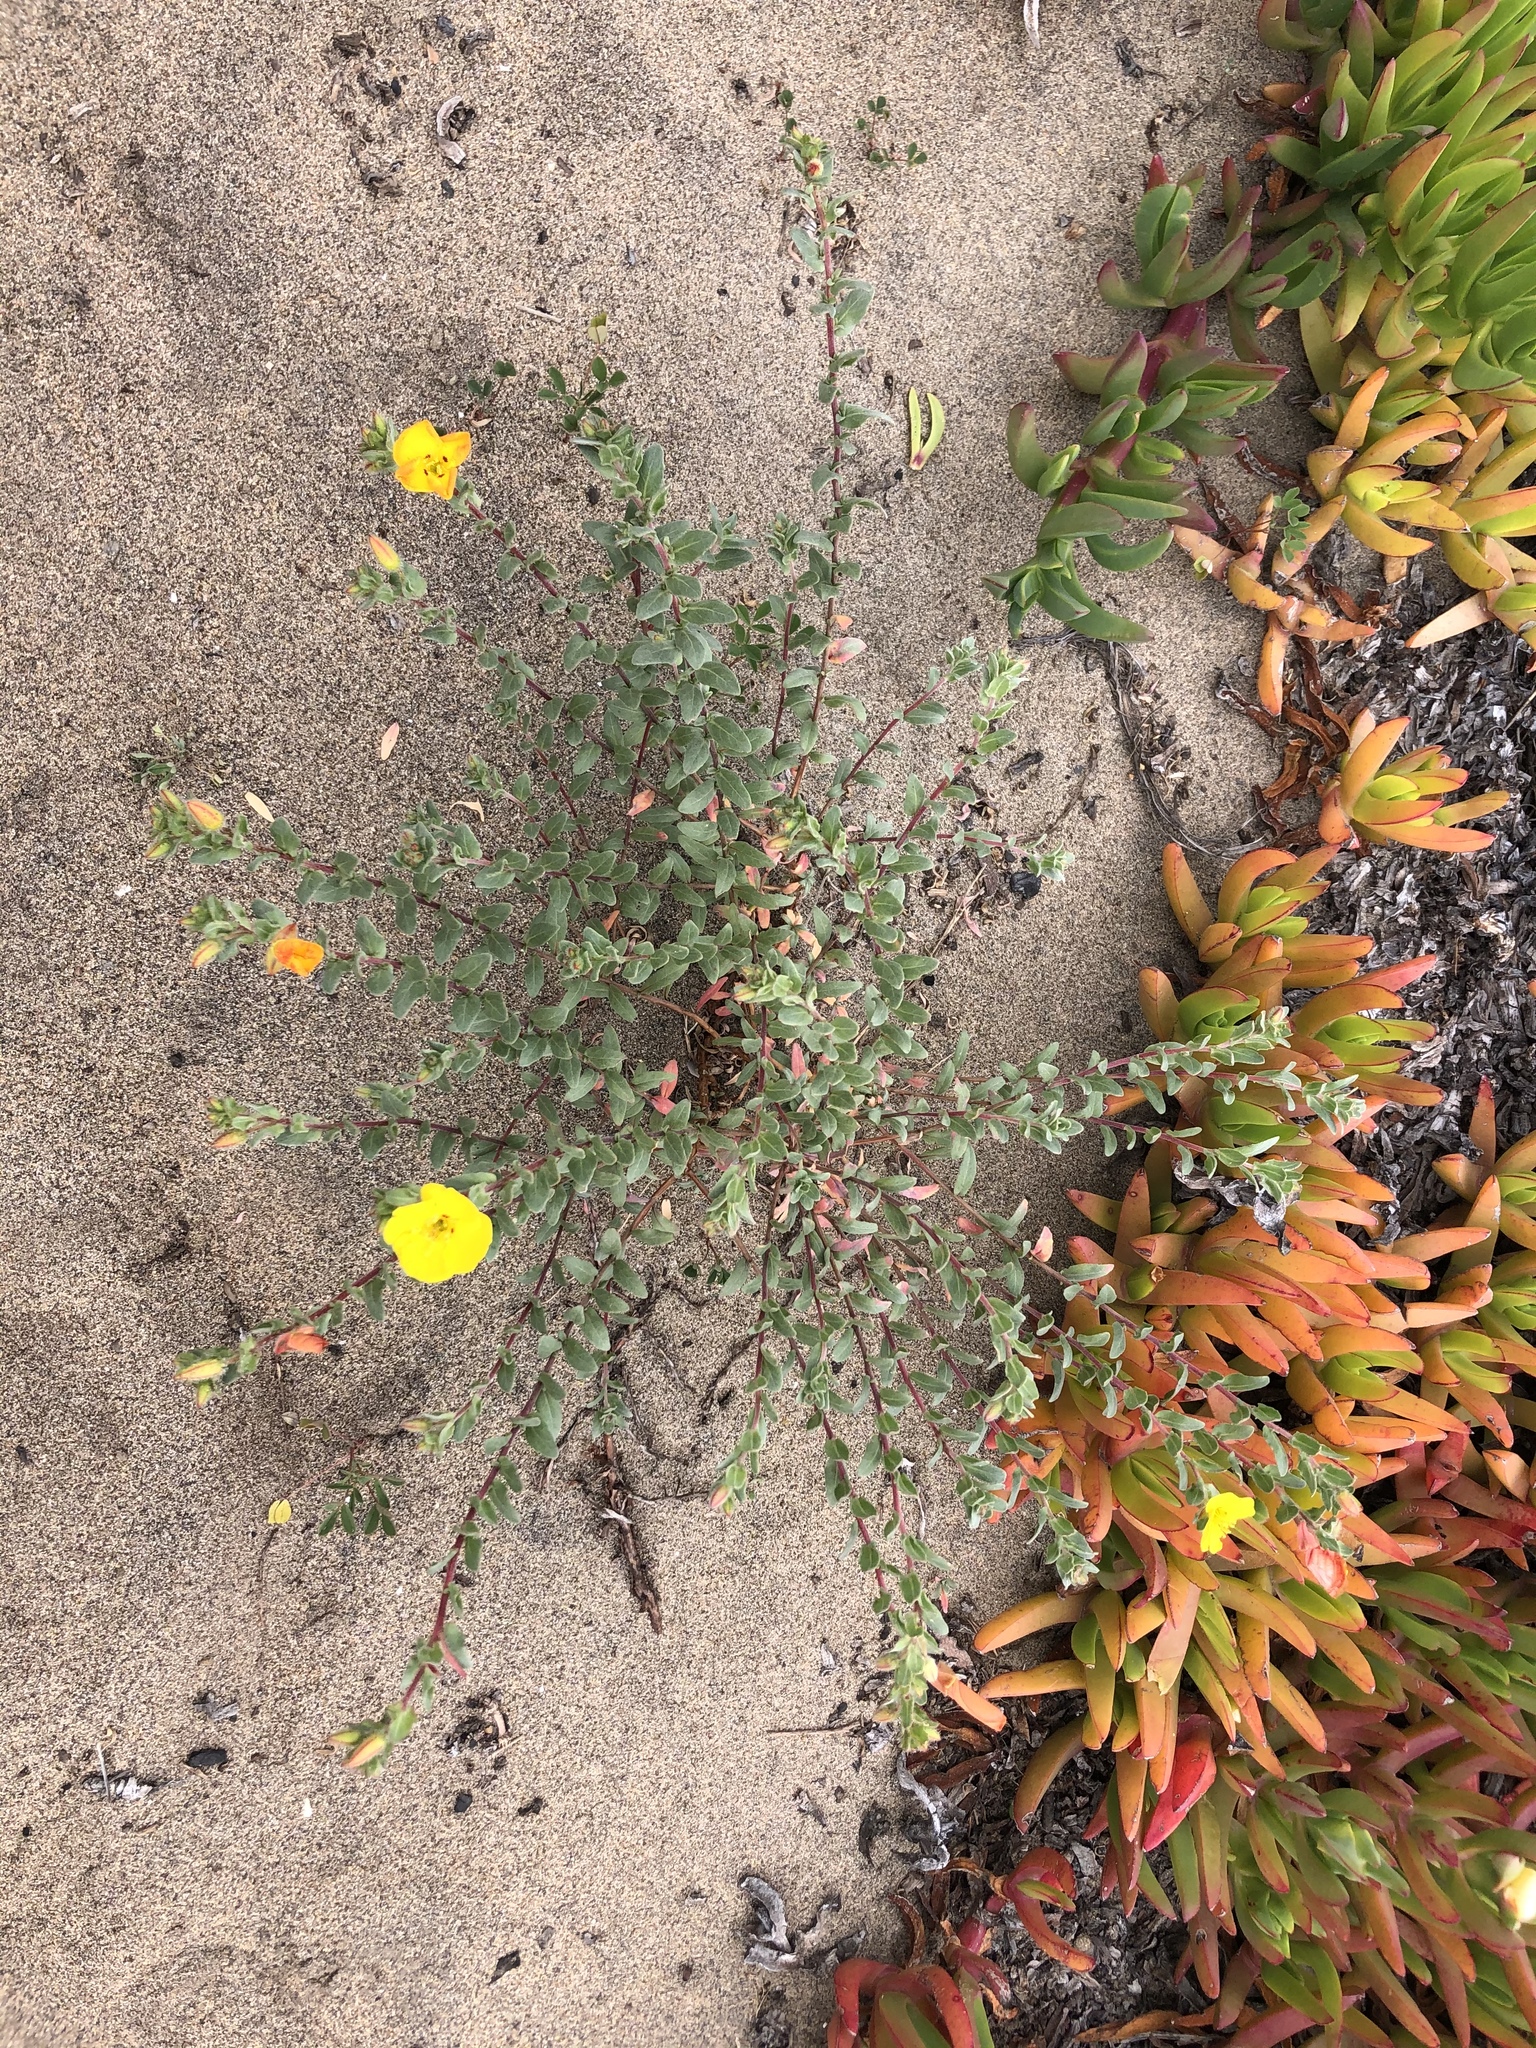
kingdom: Plantae
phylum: Tracheophyta
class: Magnoliopsida
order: Myrtales
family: Onagraceae
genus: Camissoniopsis
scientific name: Camissoniopsis cheiranthifolia
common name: Beach suncup
